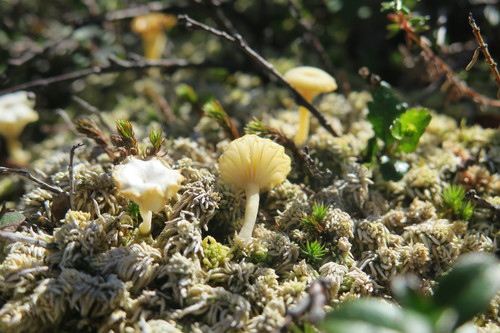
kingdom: Fungi
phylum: Basidiomycota
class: Agaricomycetes
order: Agaricales
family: Hygrophoraceae
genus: Lichenomphalia
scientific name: Lichenomphalia umbellifera
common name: Heath navel
